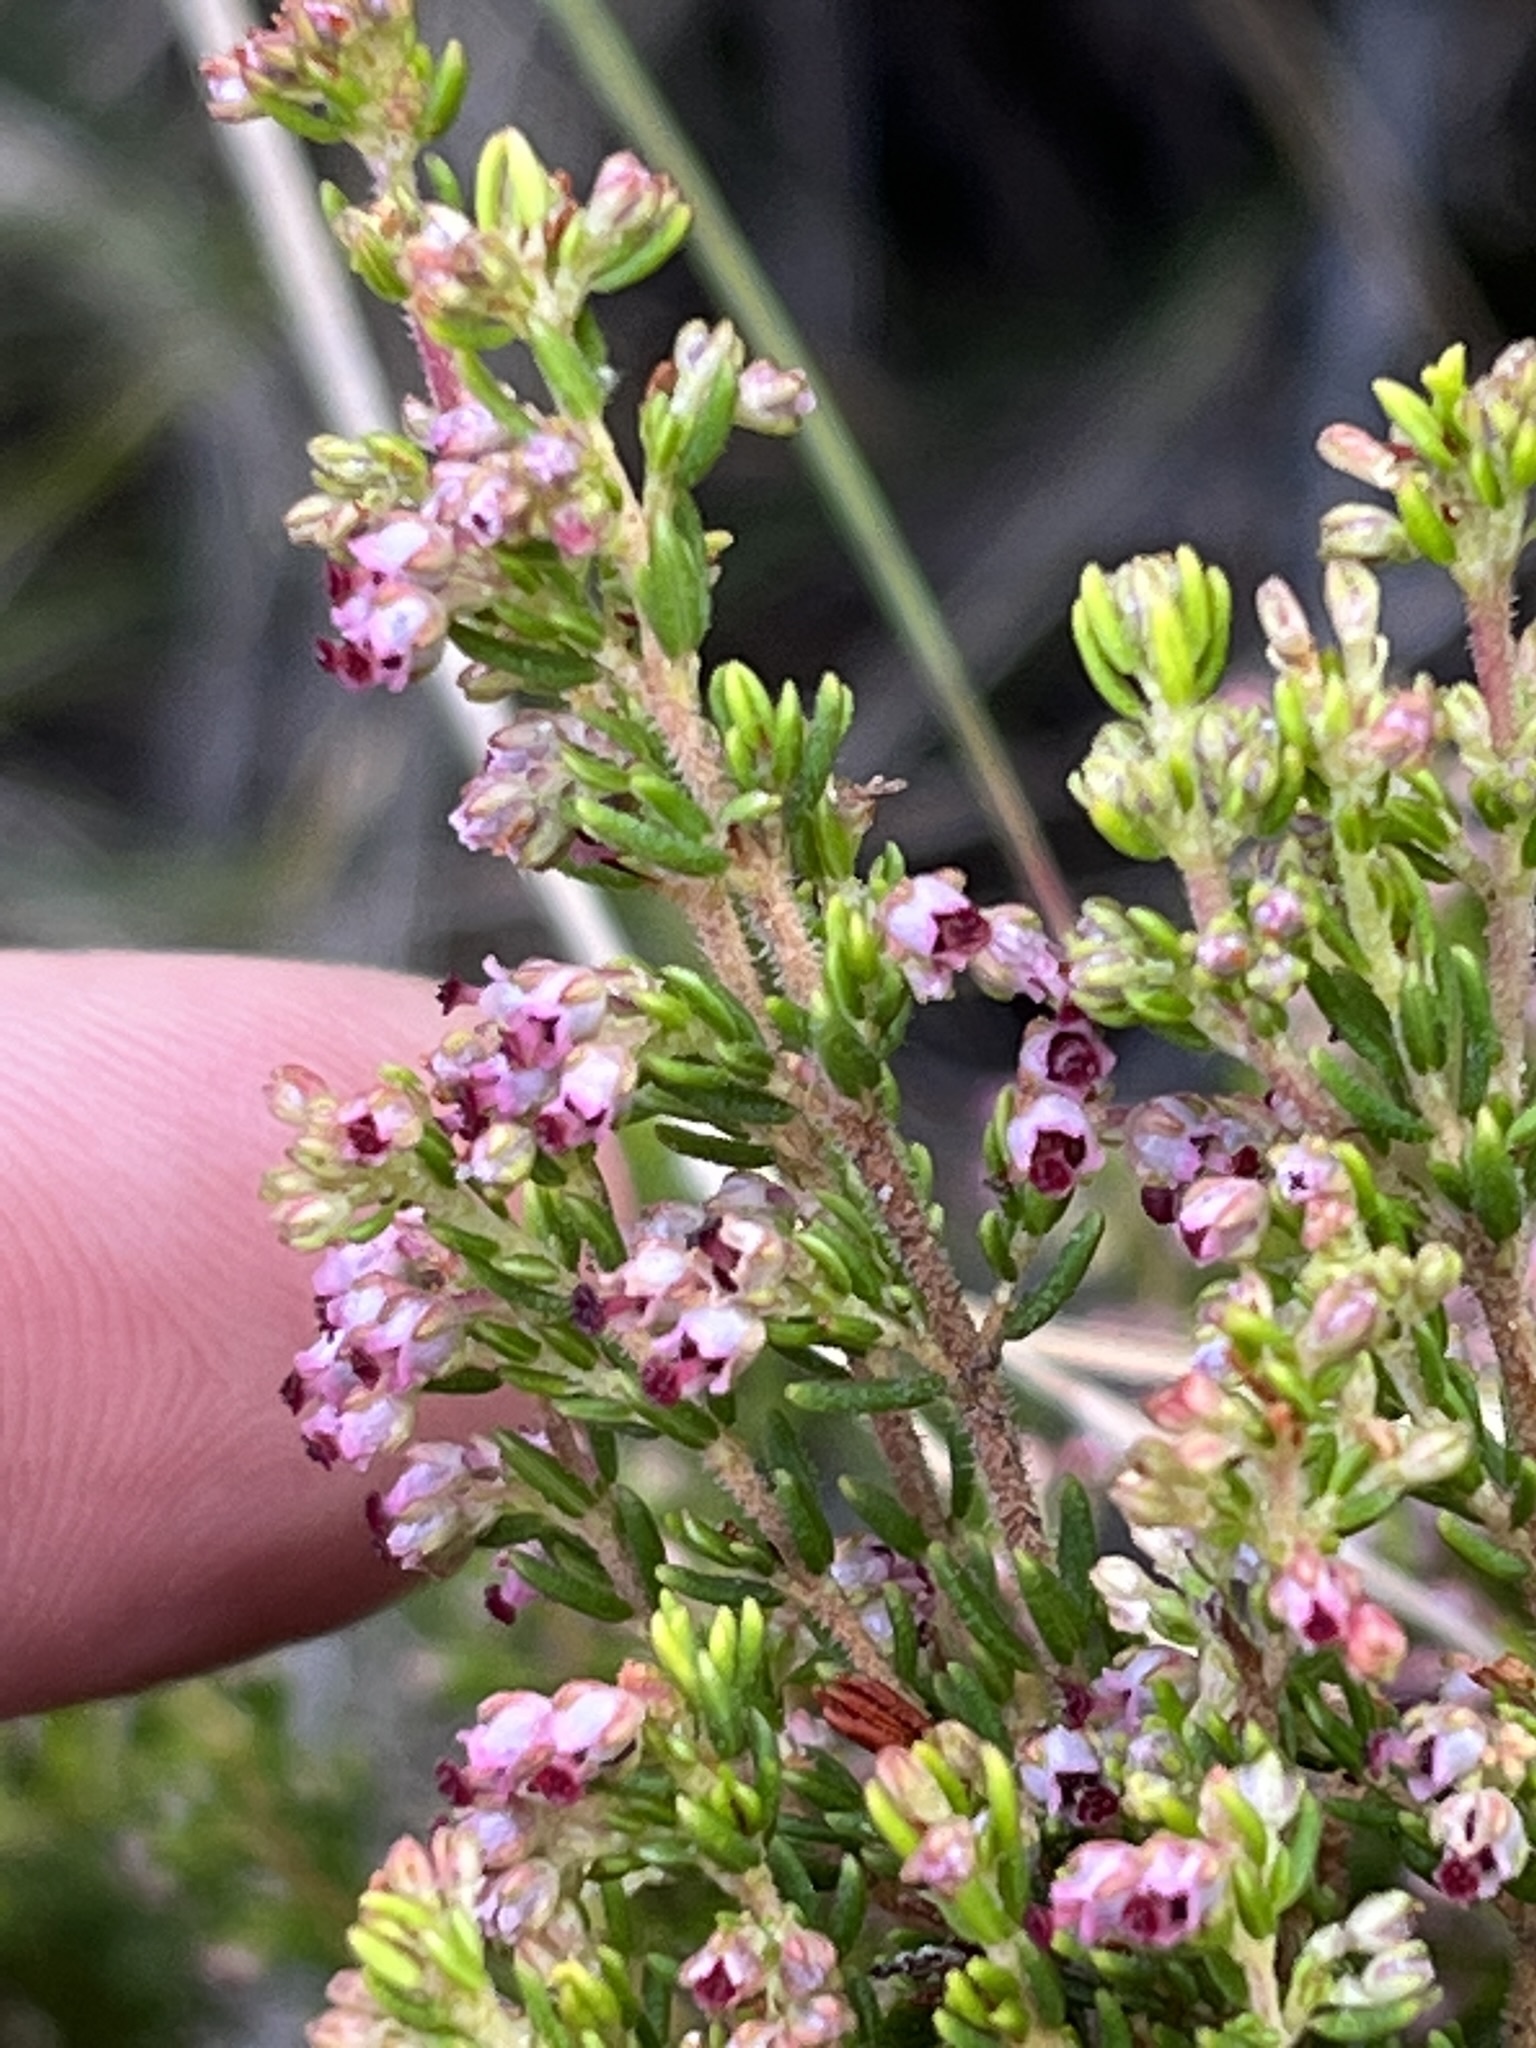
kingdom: Plantae
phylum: Tracheophyta
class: Magnoliopsida
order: Ericales
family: Ericaceae
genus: Erica
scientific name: Erica hispidula
